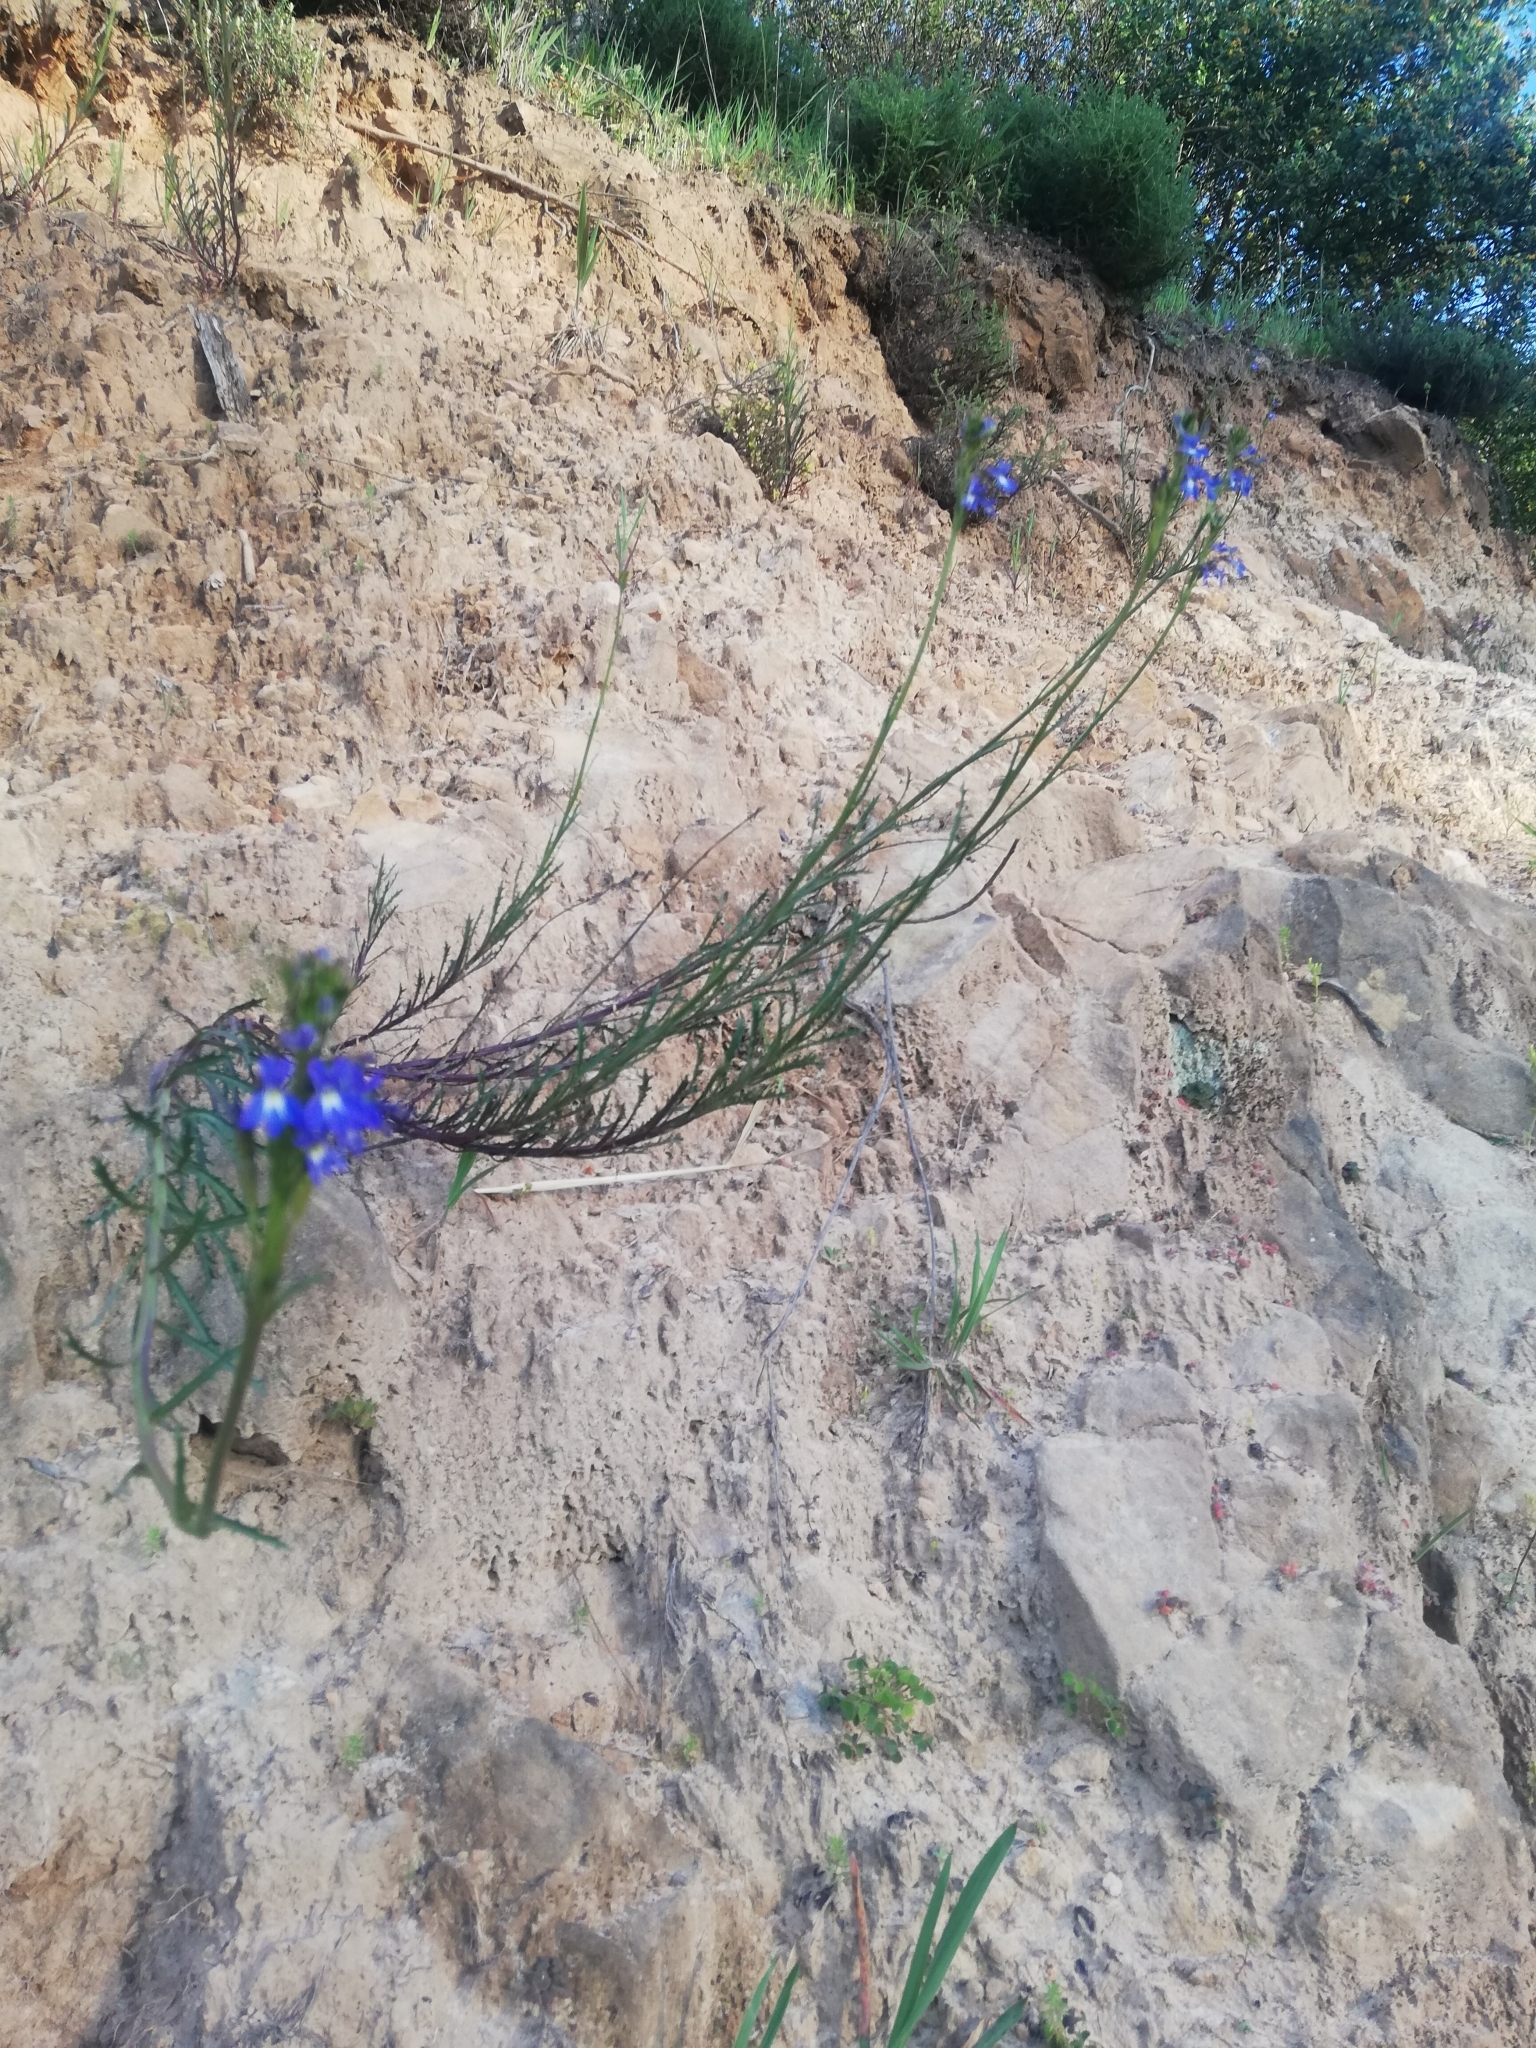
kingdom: Plantae
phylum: Tracheophyta
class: Magnoliopsida
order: Asterales
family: Campanulaceae
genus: Lobelia
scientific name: Lobelia comosa
